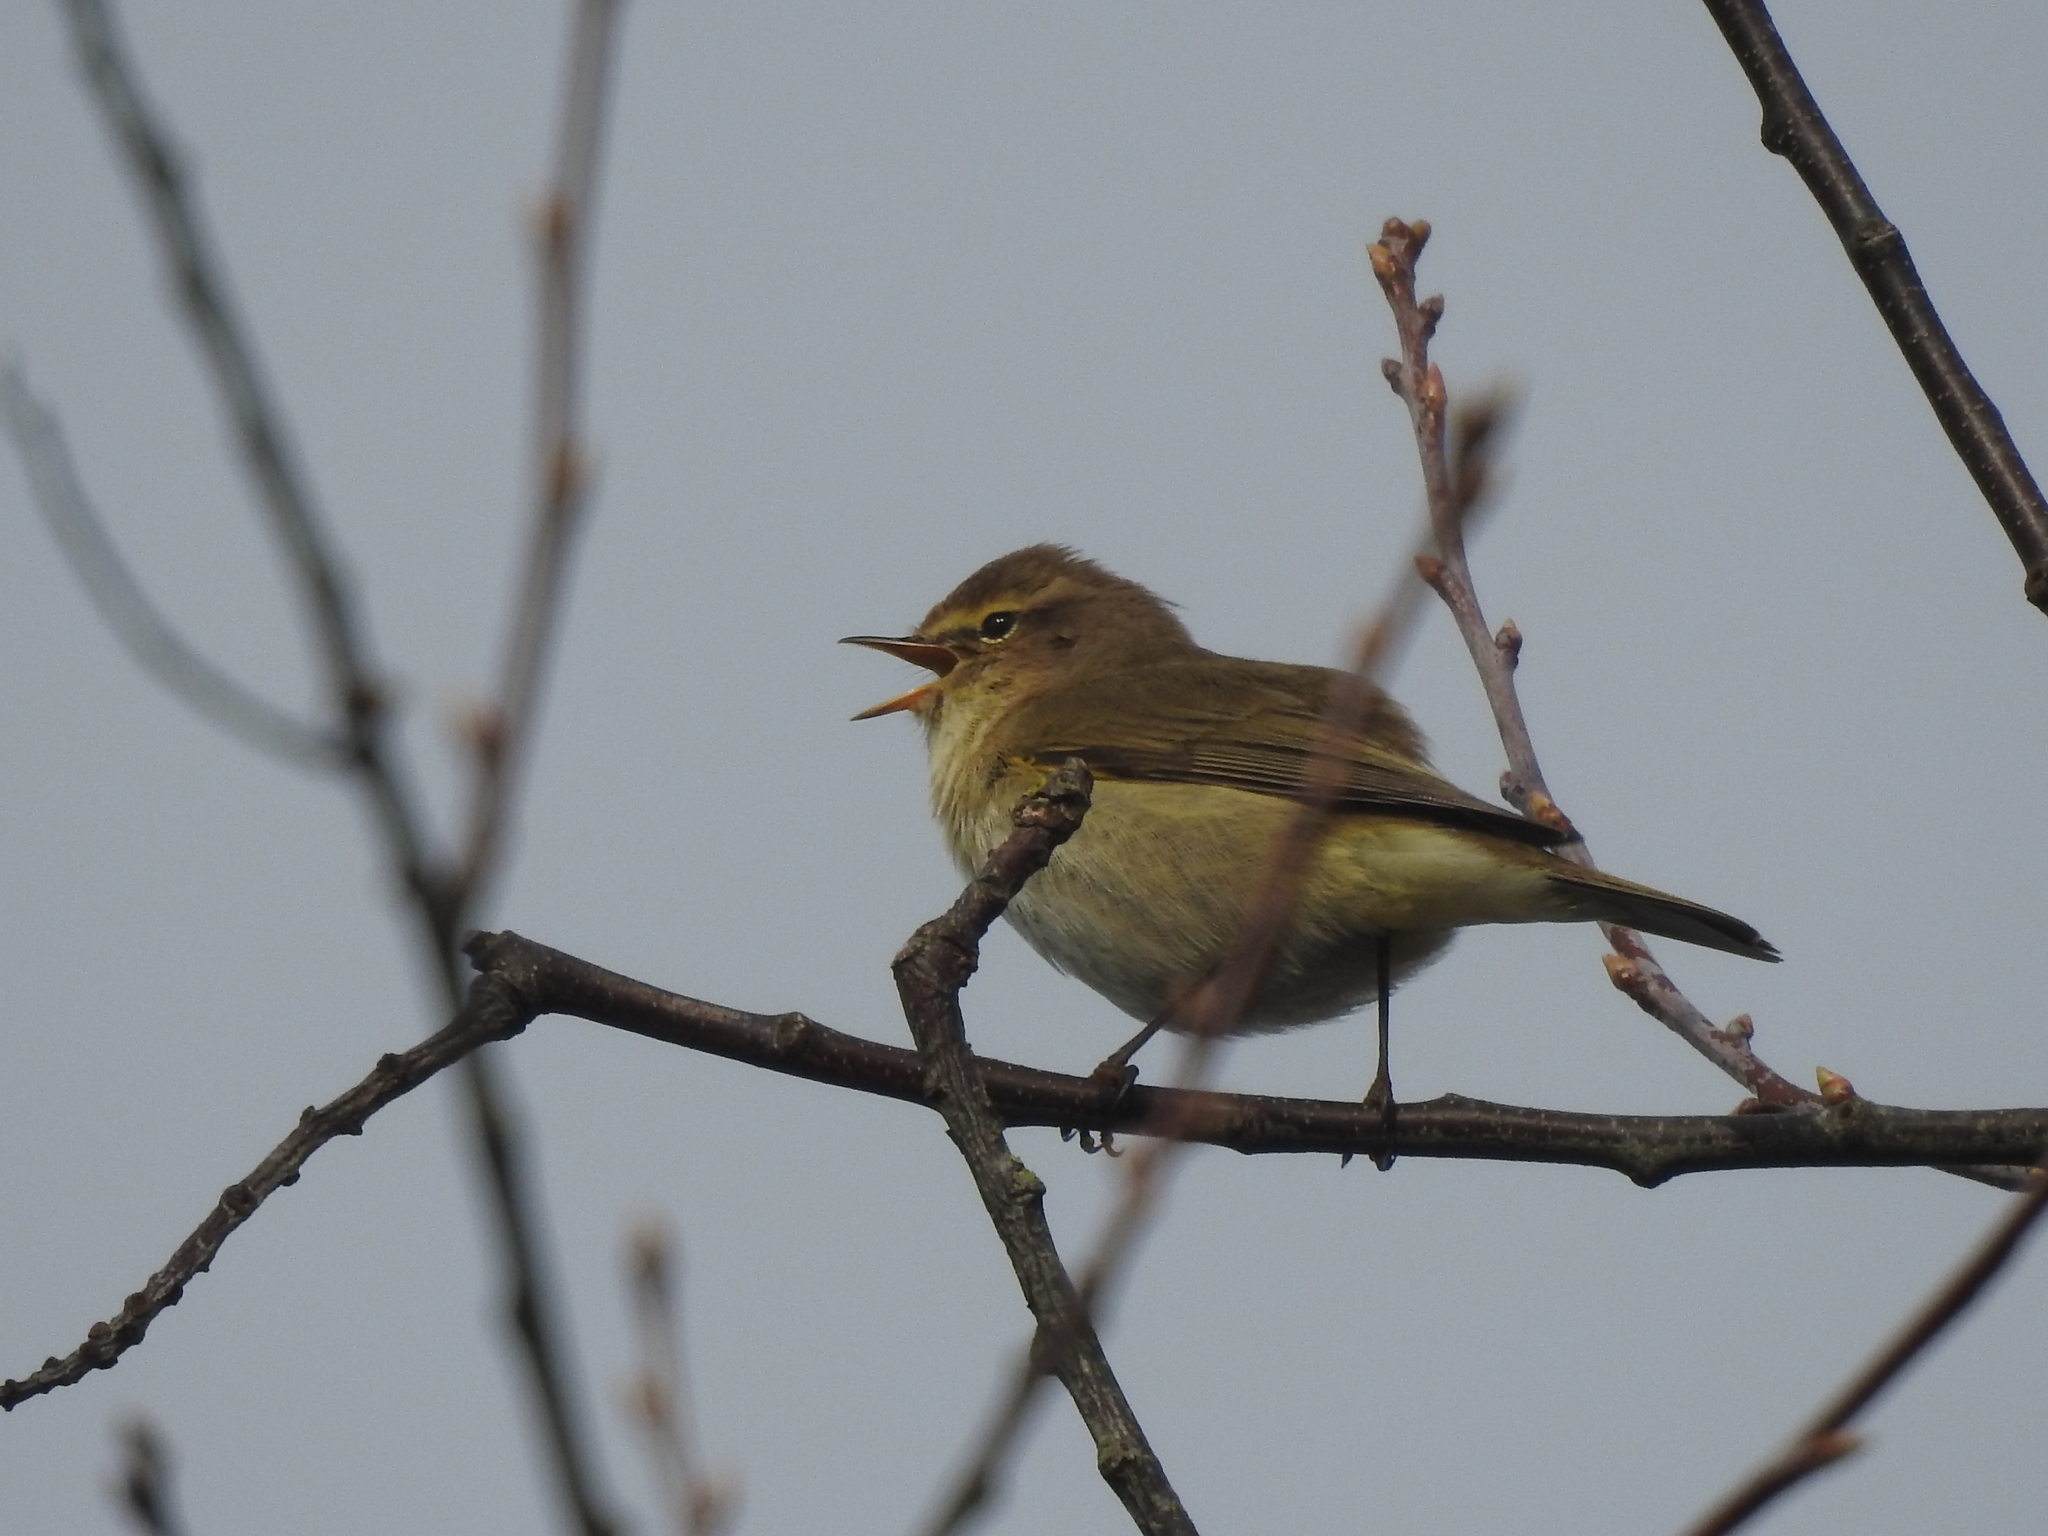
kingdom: Animalia
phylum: Chordata
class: Aves
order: Passeriformes
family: Phylloscopidae
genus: Phylloscopus
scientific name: Phylloscopus collybita
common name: Common chiffchaff
